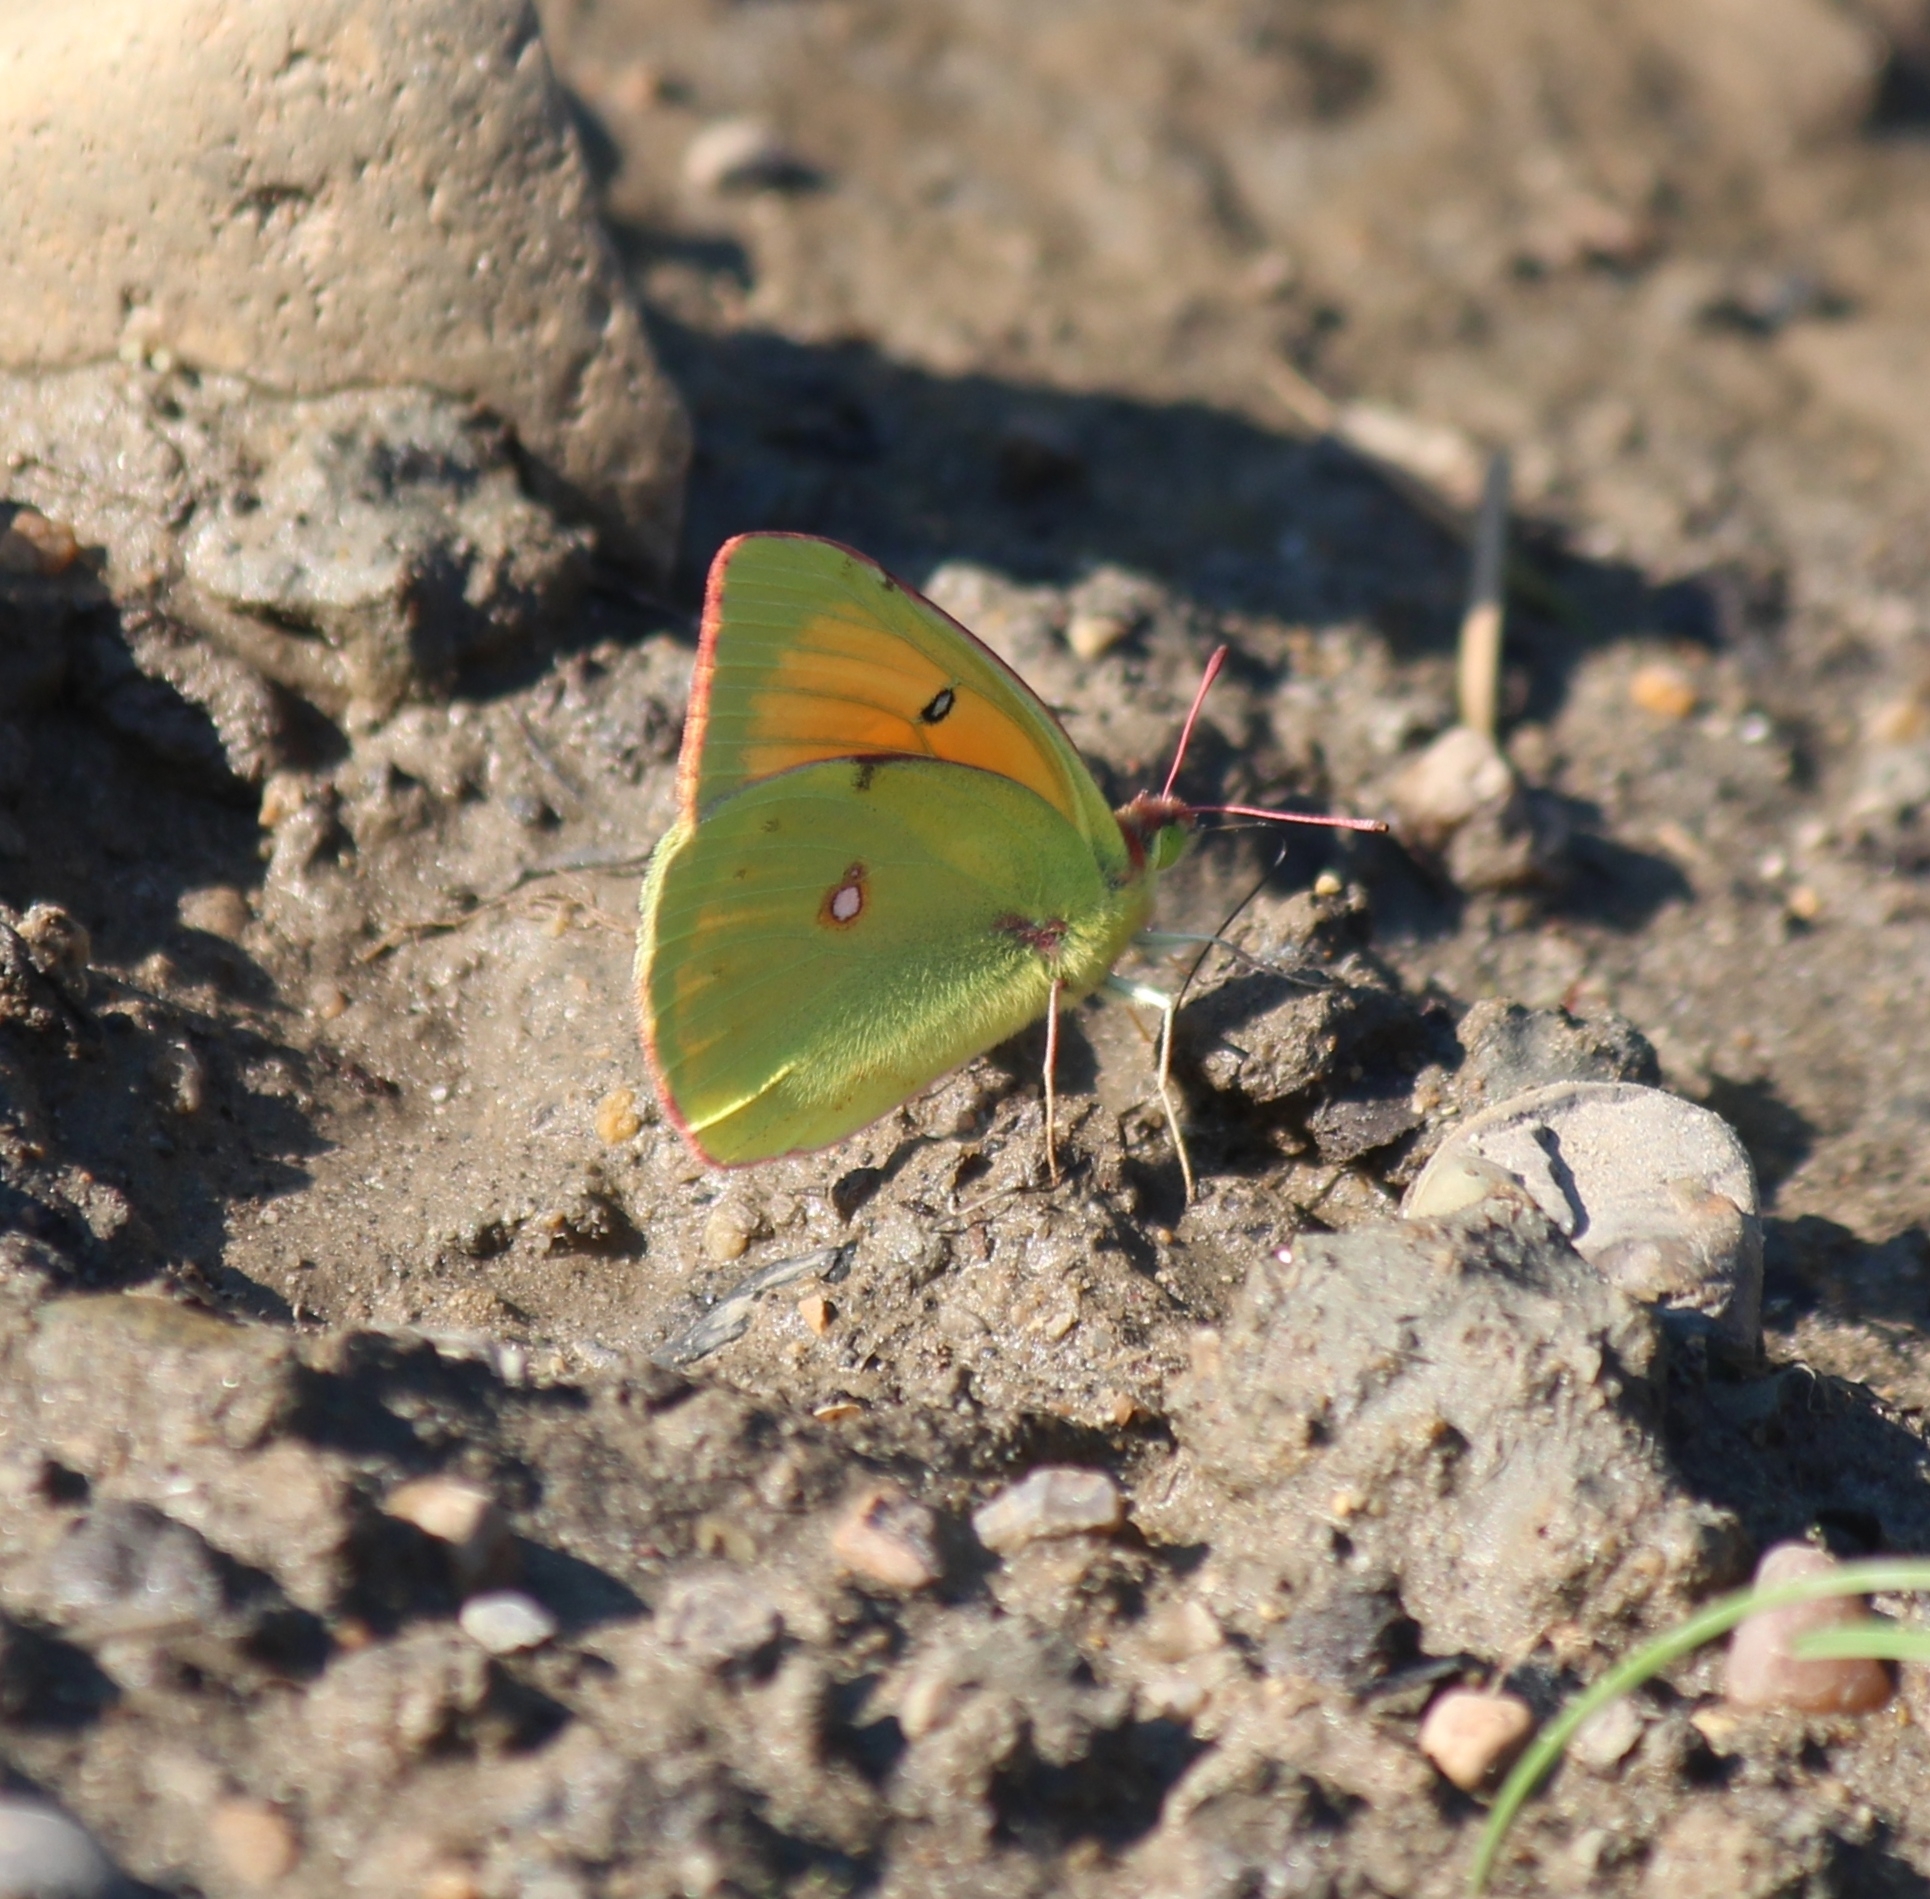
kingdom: Animalia
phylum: Arthropoda
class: Insecta
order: Lepidoptera
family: Pieridae
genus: Colias
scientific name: Colias heos
